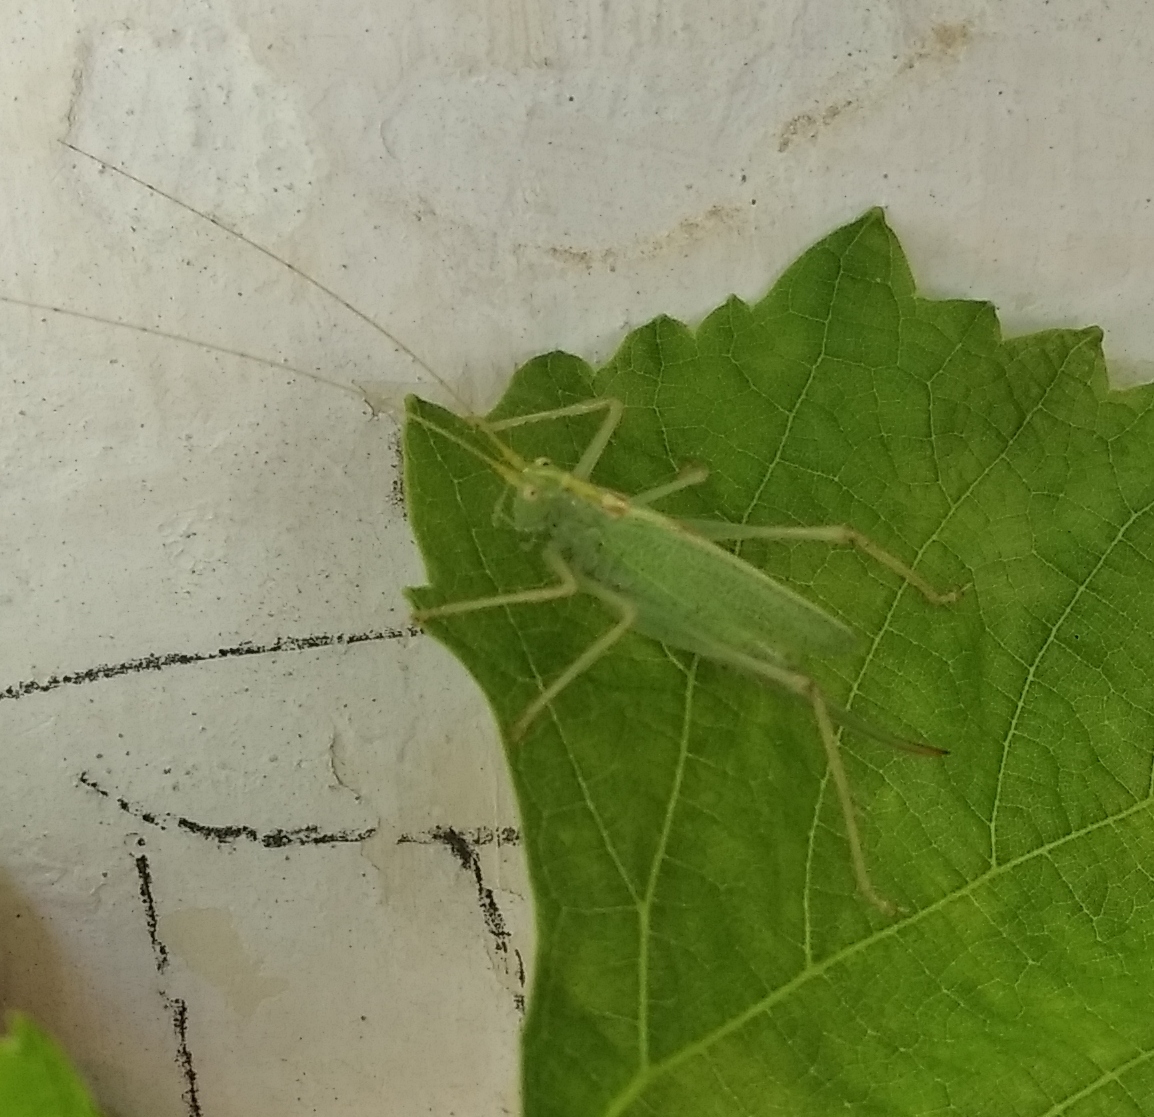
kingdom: Animalia
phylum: Arthropoda
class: Insecta
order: Orthoptera
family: Tettigoniidae
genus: Meconema
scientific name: Meconema thalassinum
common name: Oak bush-cricket
